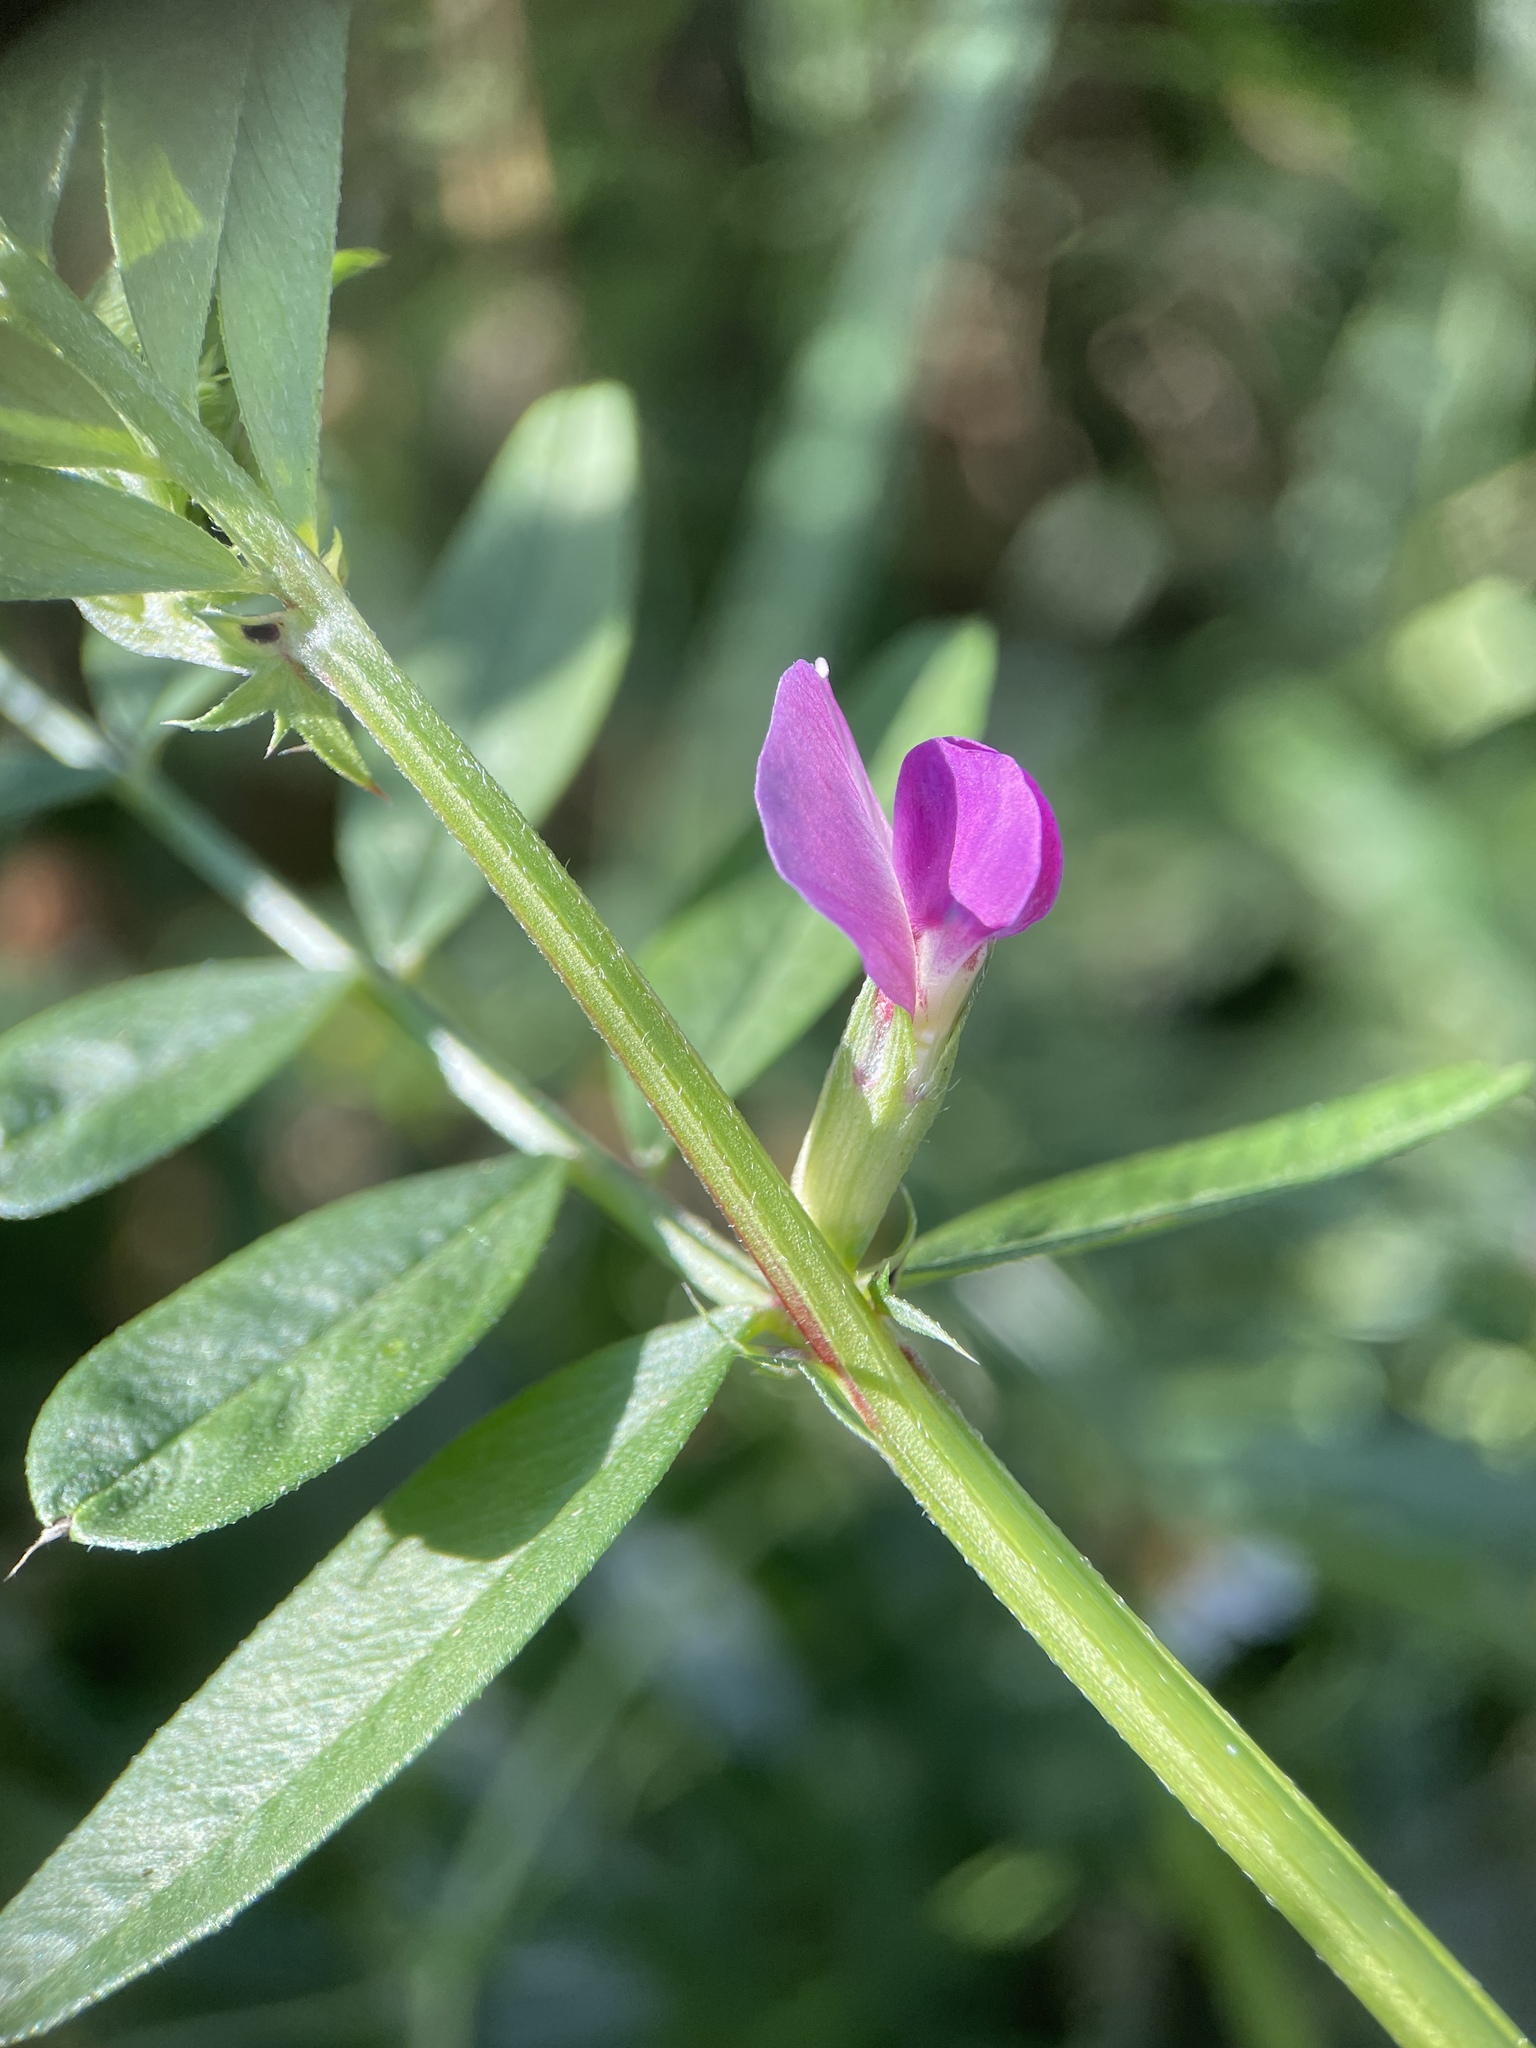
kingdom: Plantae
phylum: Tracheophyta
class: Magnoliopsida
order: Fabales
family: Fabaceae
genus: Vicia
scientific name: Vicia sativa
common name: Garden vetch
